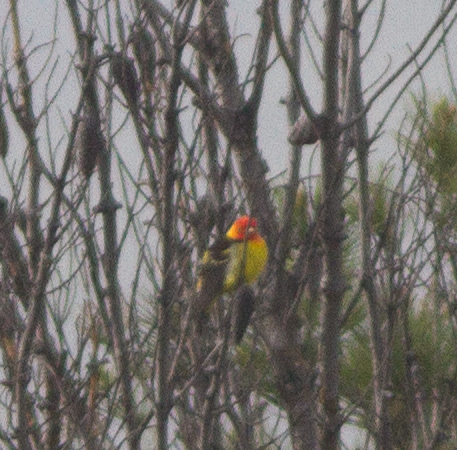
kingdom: Animalia
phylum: Chordata
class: Aves
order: Passeriformes
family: Cardinalidae
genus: Piranga
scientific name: Piranga ludoviciana
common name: Western tanager
